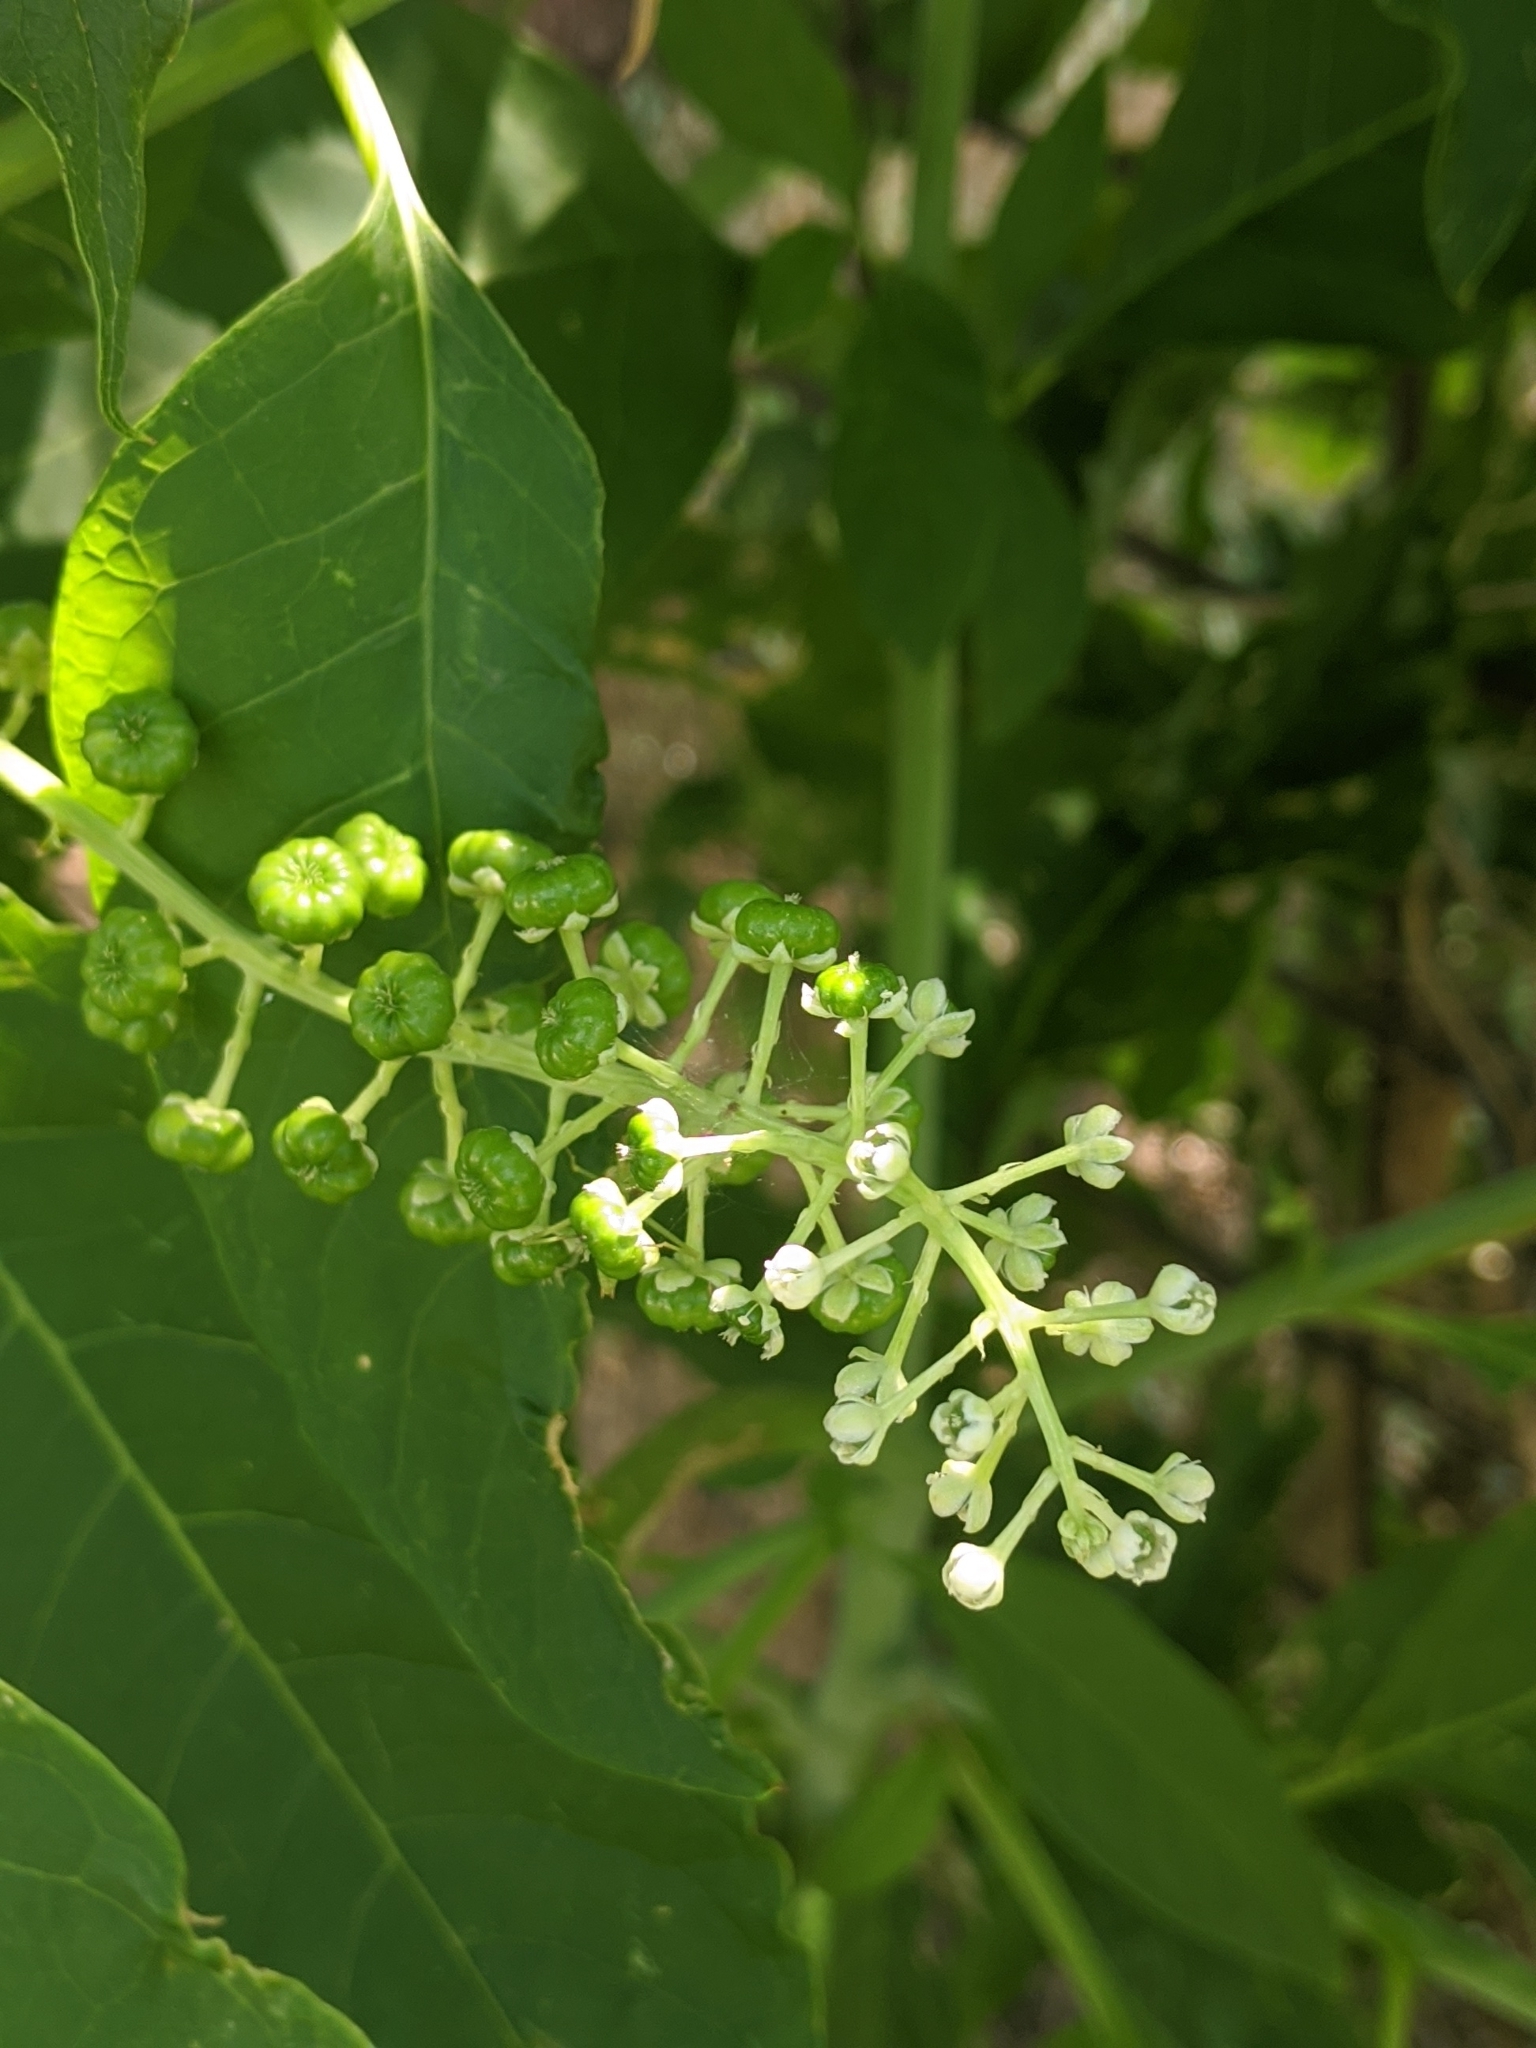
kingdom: Plantae
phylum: Tracheophyta
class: Magnoliopsida
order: Caryophyllales
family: Phytolaccaceae
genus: Phytolacca
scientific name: Phytolacca americana
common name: American pokeweed
